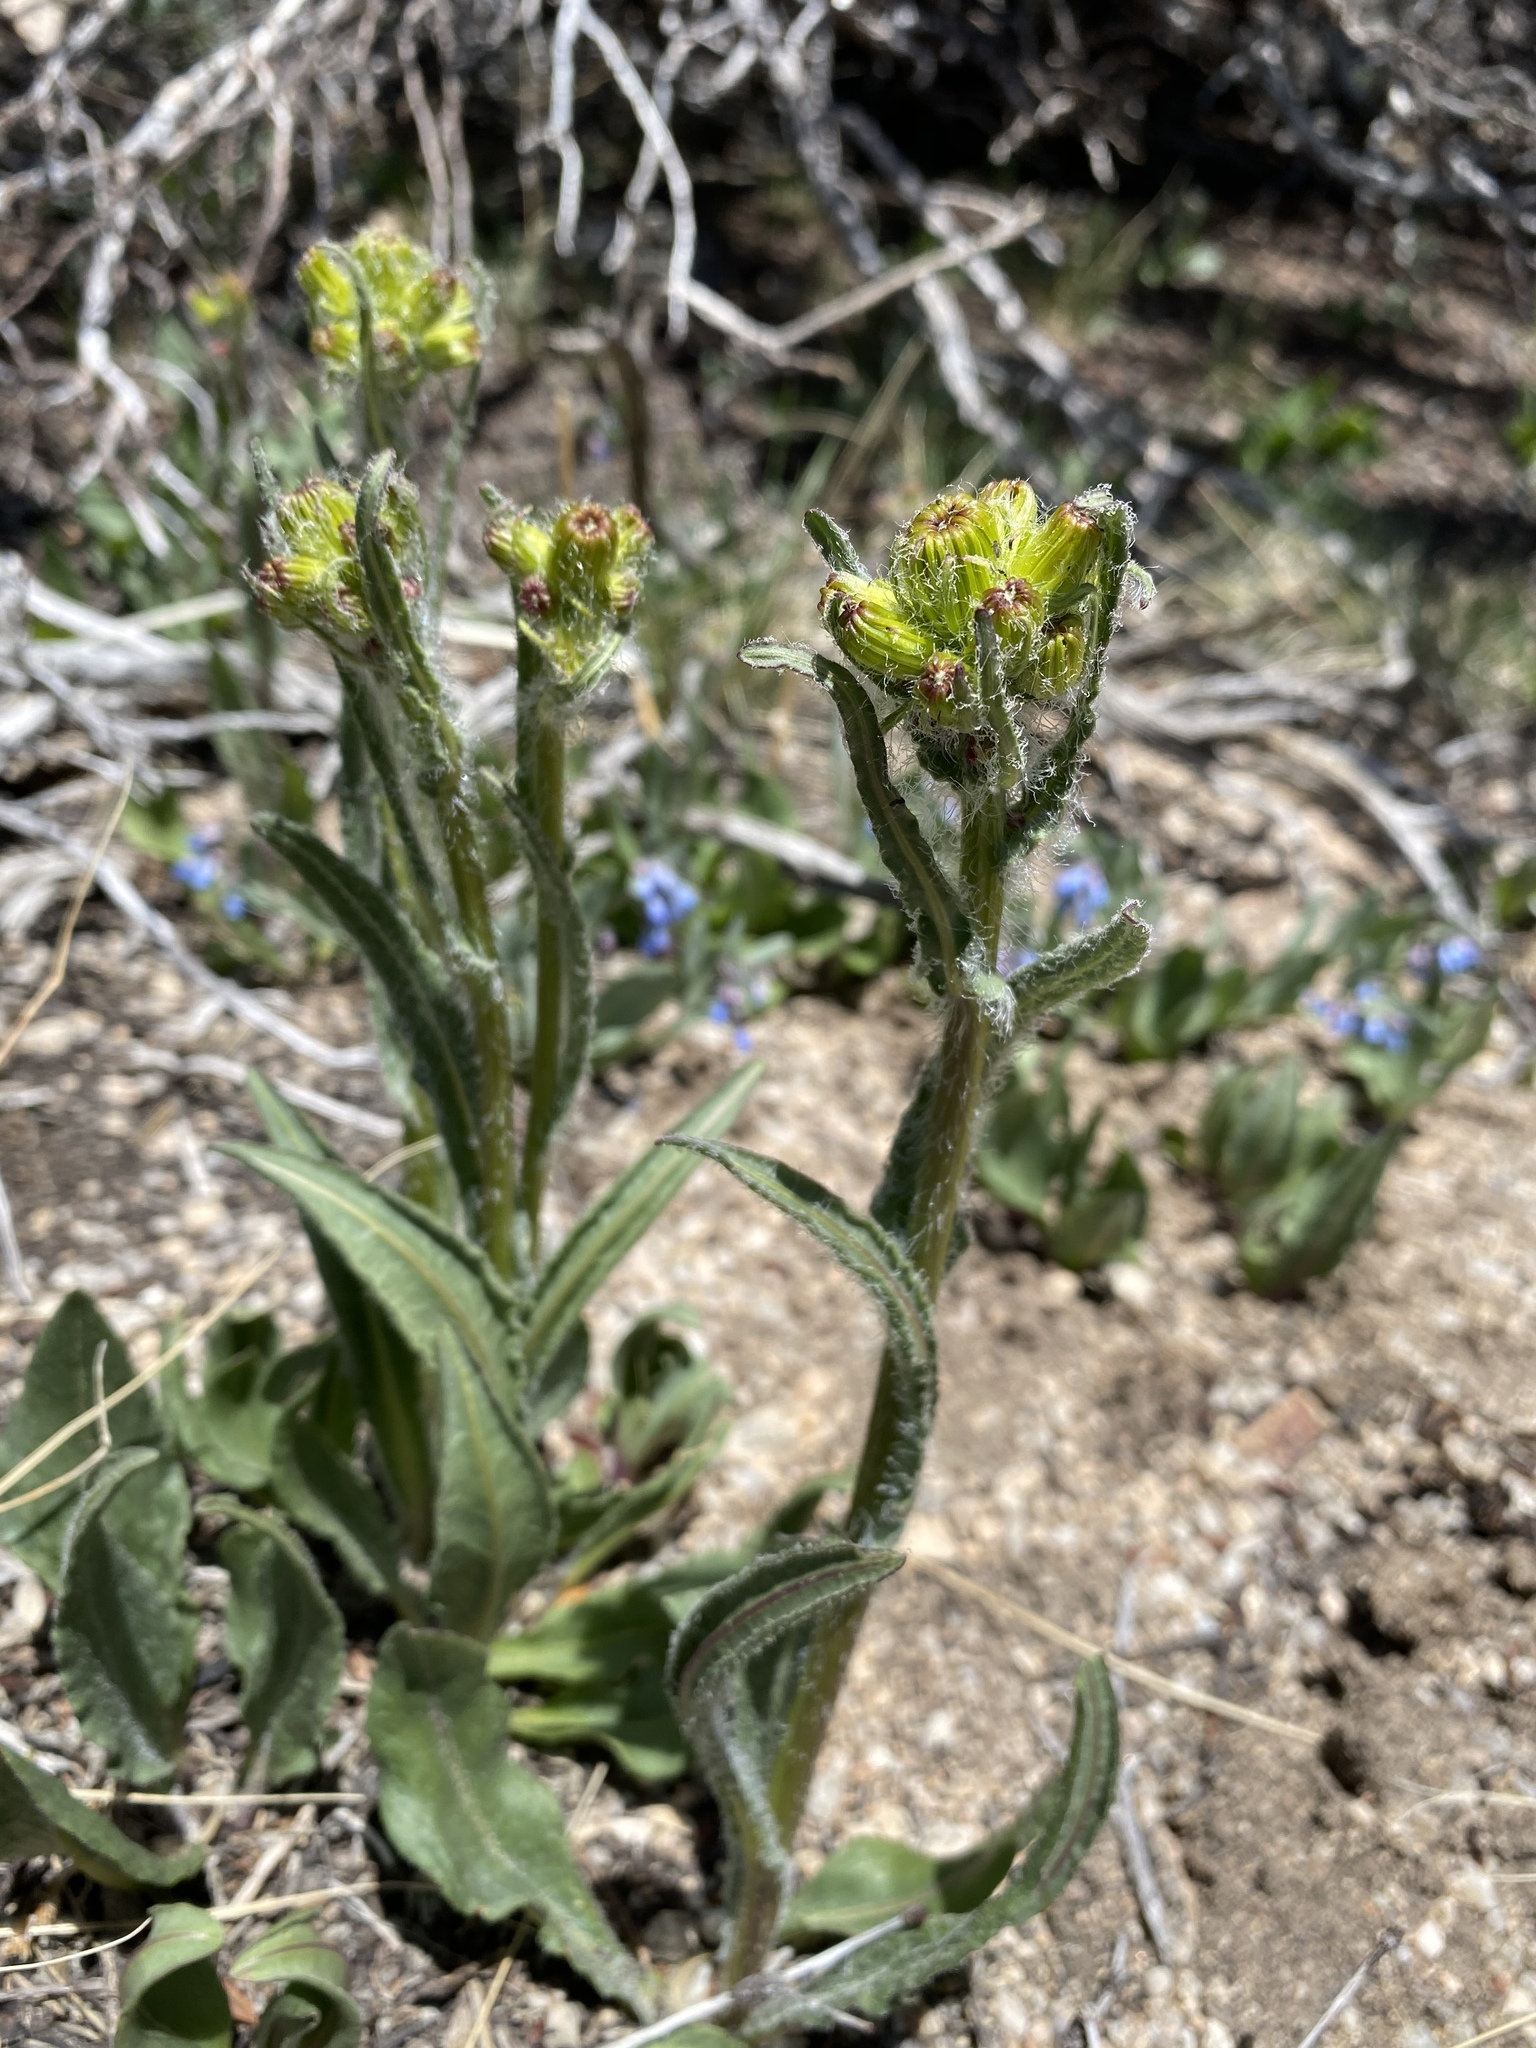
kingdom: Plantae
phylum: Tracheophyta
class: Magnoliopsida
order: Asterales
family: Asteraceae
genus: Senecio
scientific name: Senecio integerrimus
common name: Gaugeplant
